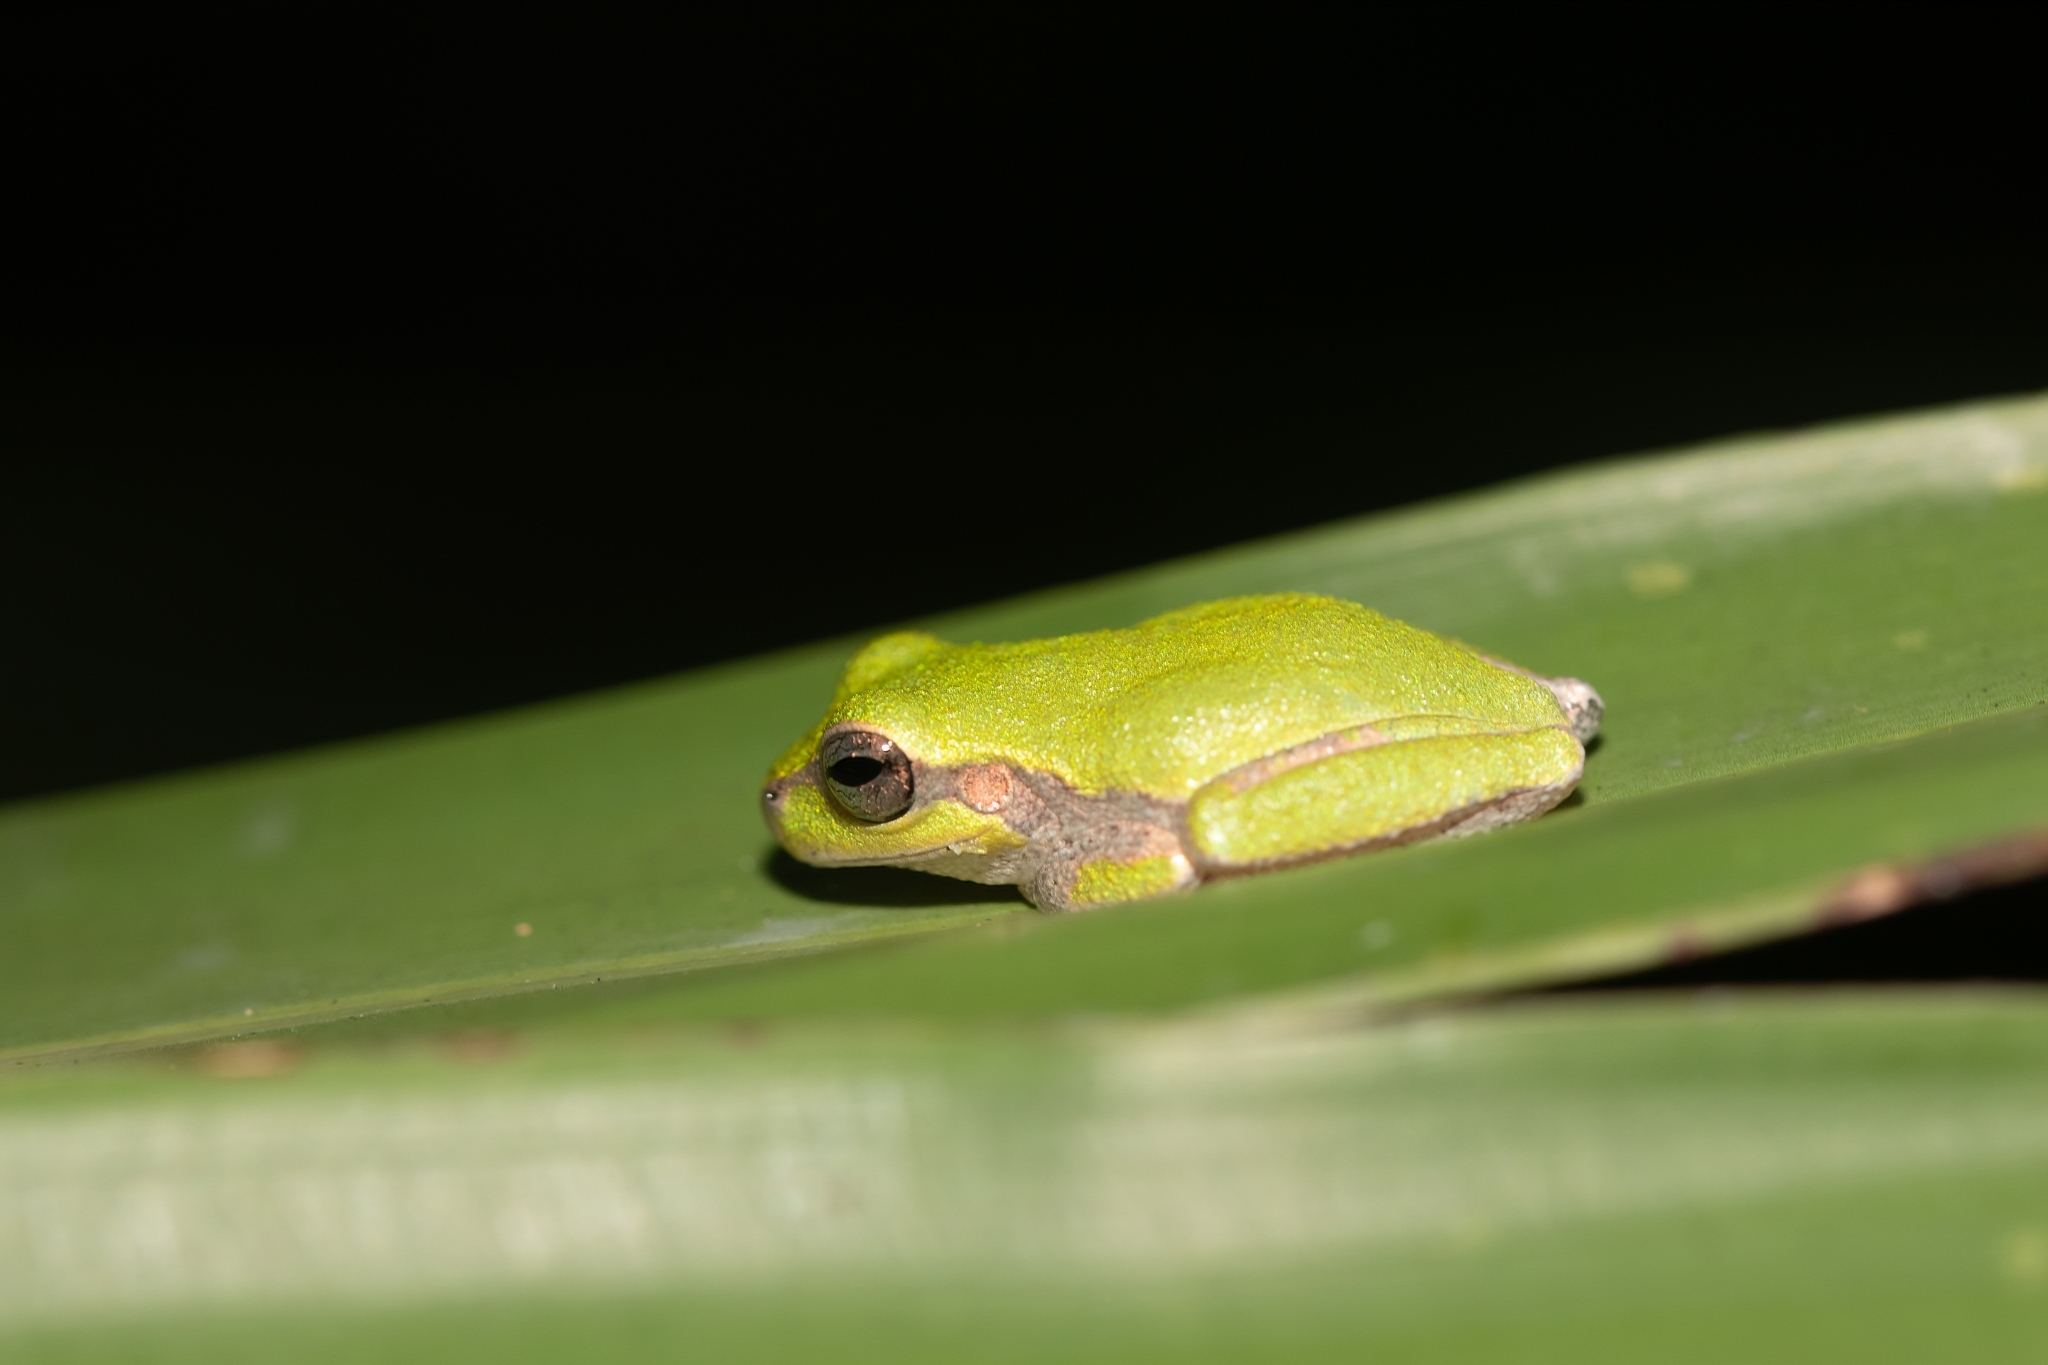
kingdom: Animalia
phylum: Chordata
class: Amphibia
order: Anura
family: Hylidae
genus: Hyla
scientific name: Hyla femoralis
